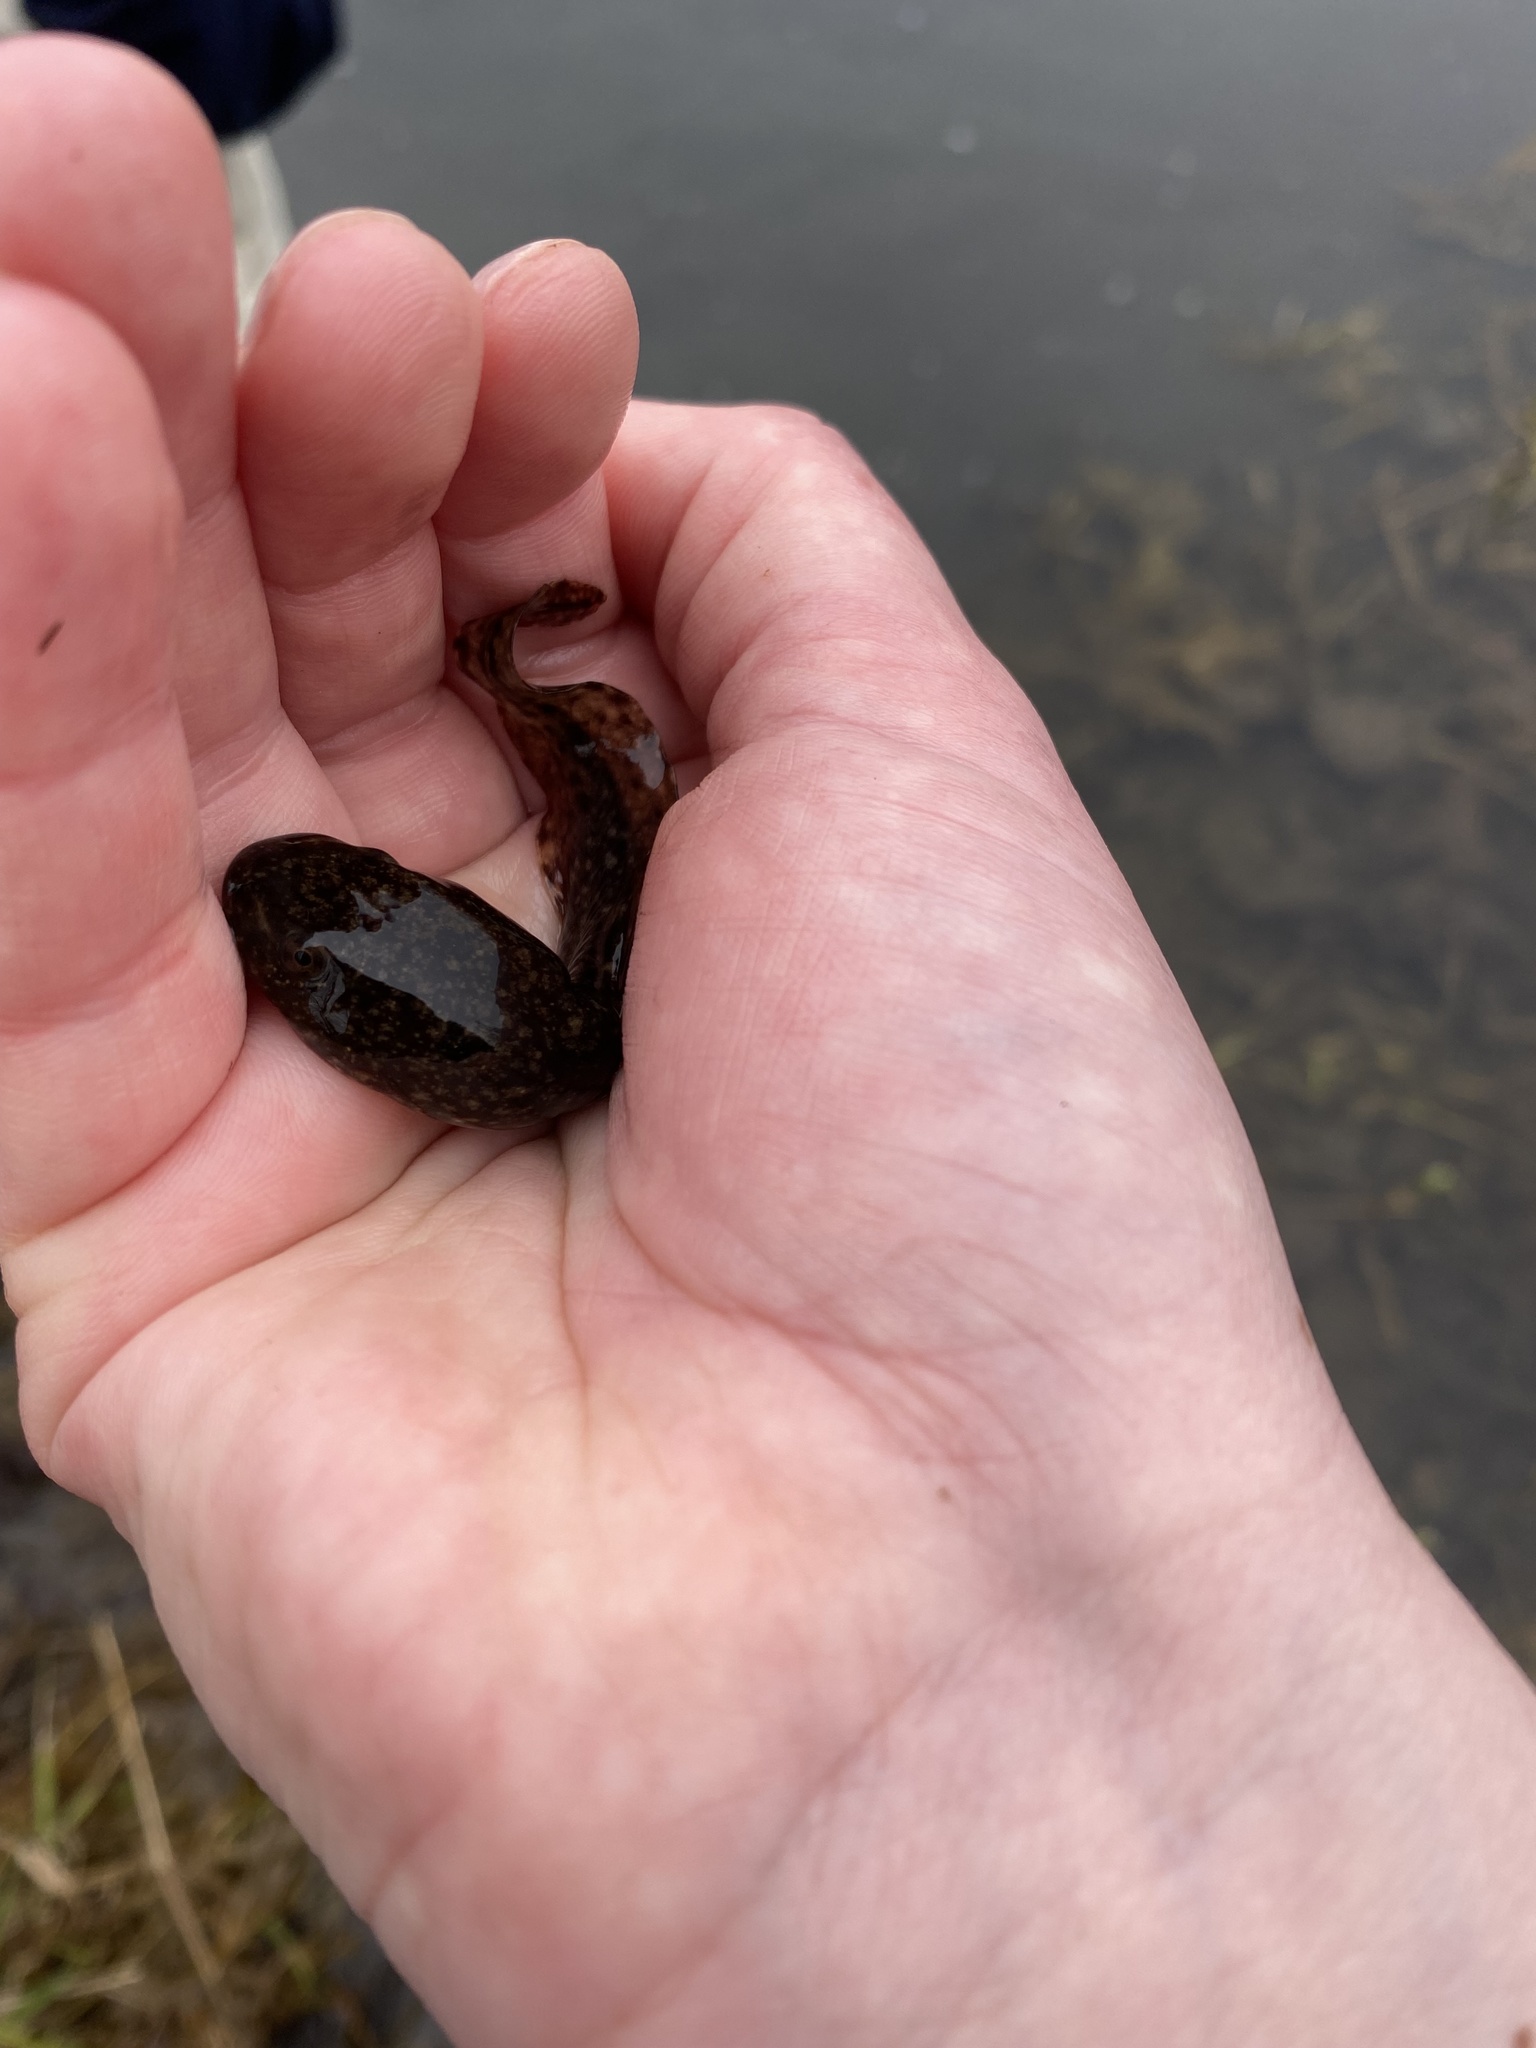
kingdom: Animalia
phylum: Chordata
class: Amphibia
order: Anura
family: Ranidae
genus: Lithobates
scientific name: Lithobates clamitans
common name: Green frog
